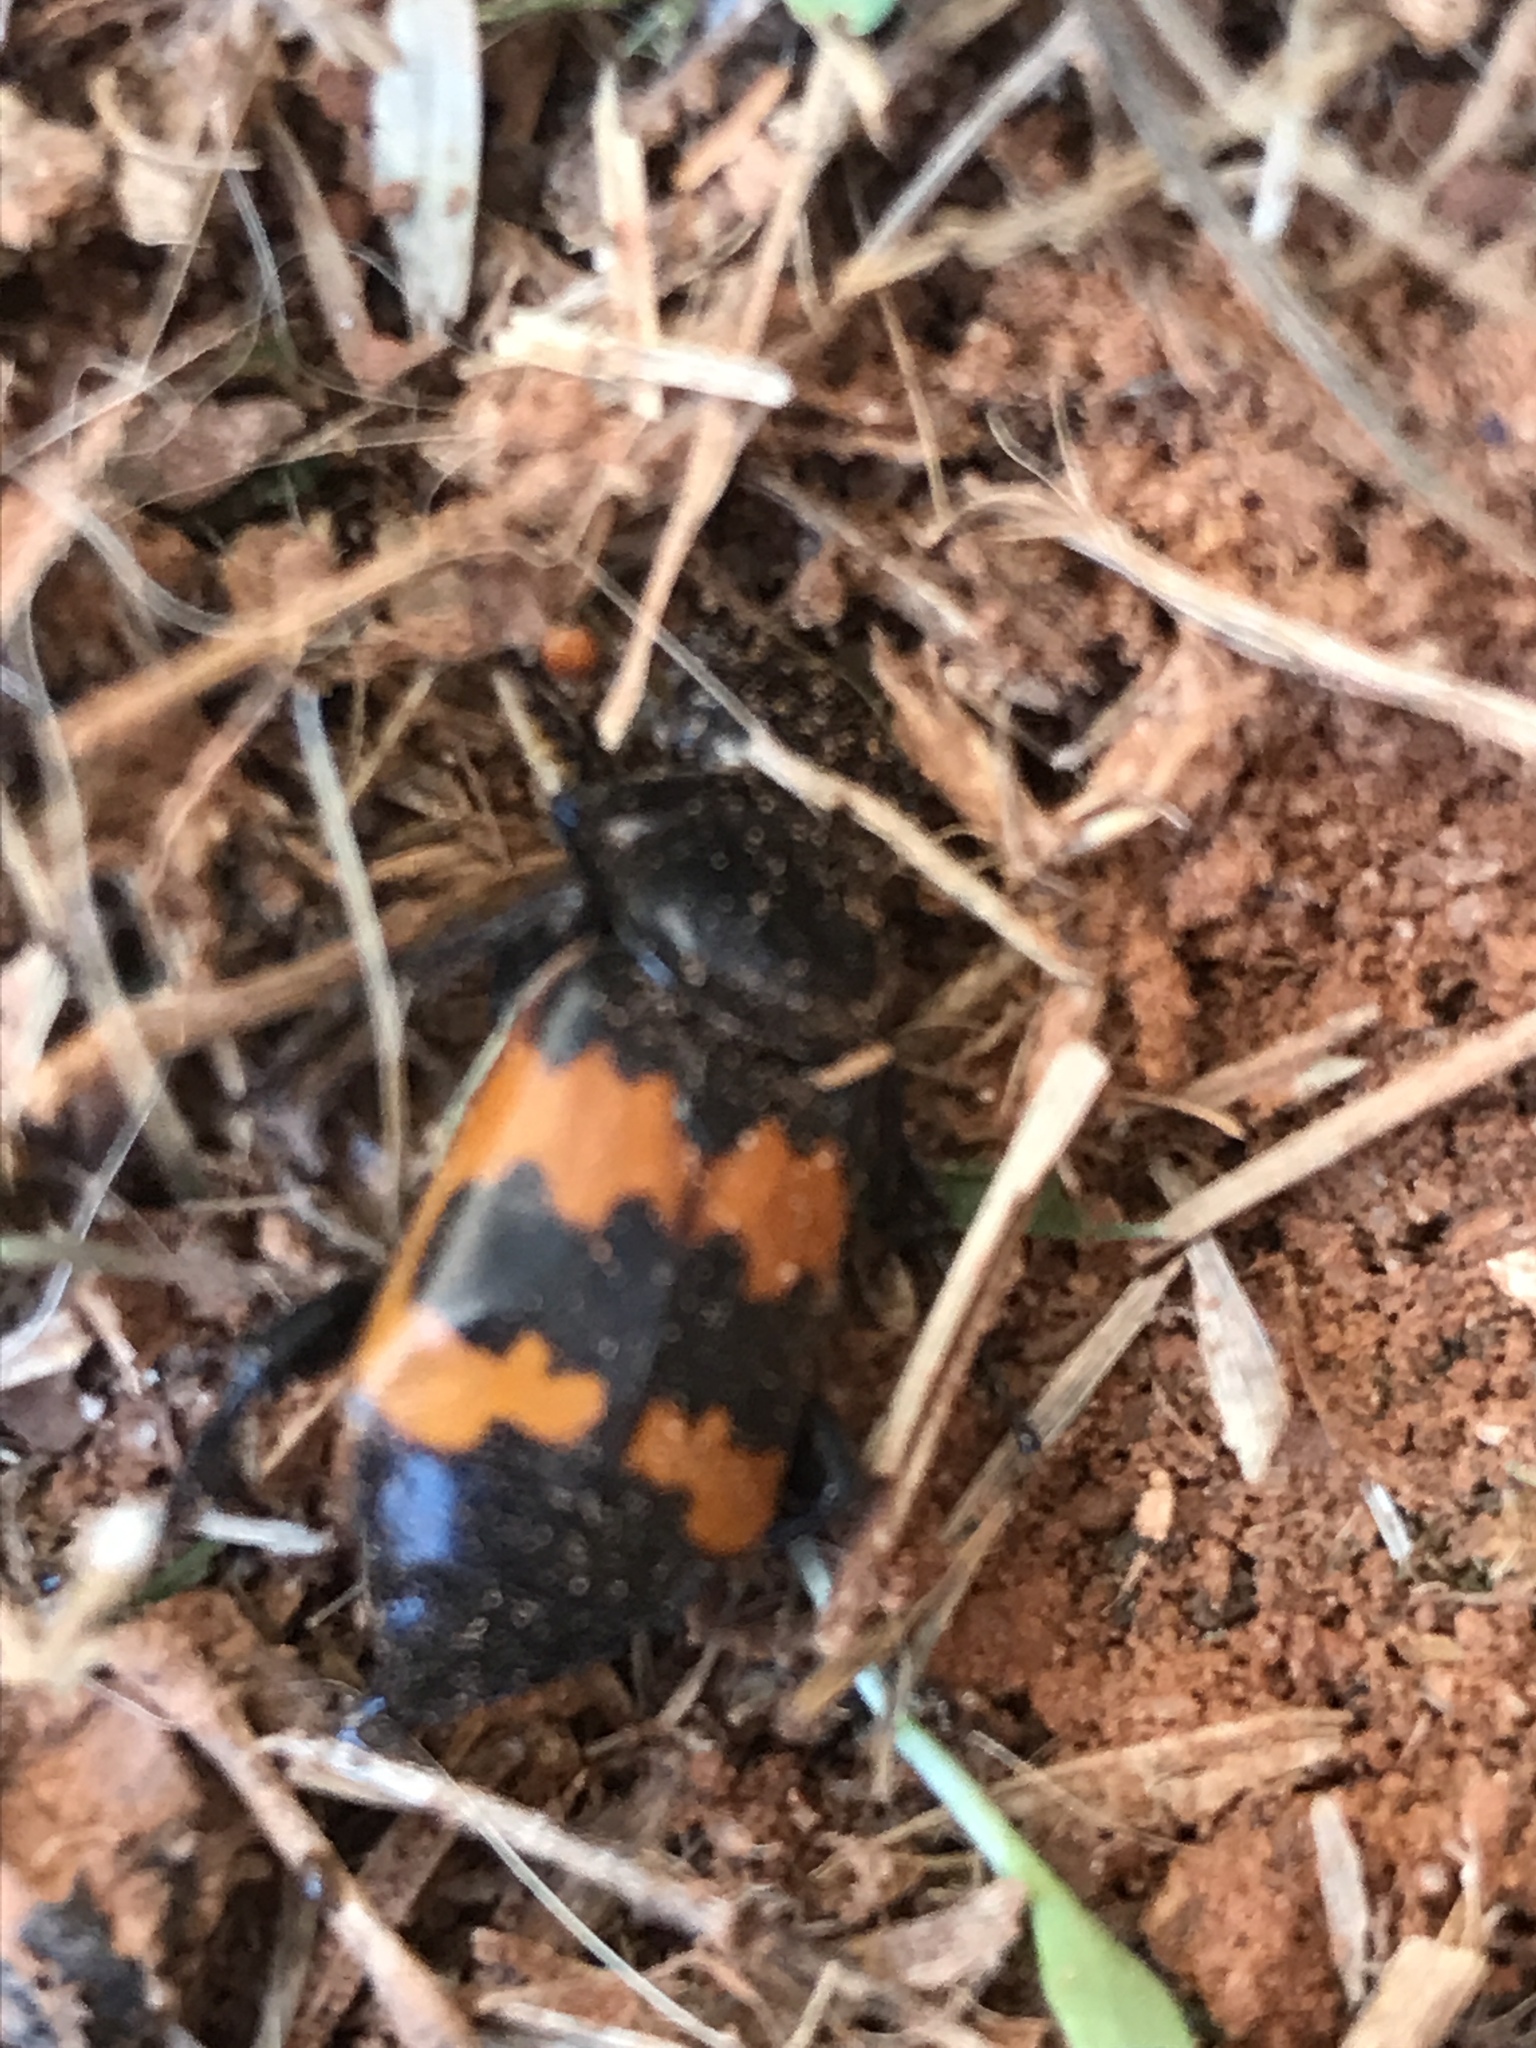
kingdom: Animalia
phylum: Arthropoda
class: Insecta
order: Coleoptera
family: Staphylinidae
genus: Nicrophorus
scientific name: Nicrophorus marginatus
